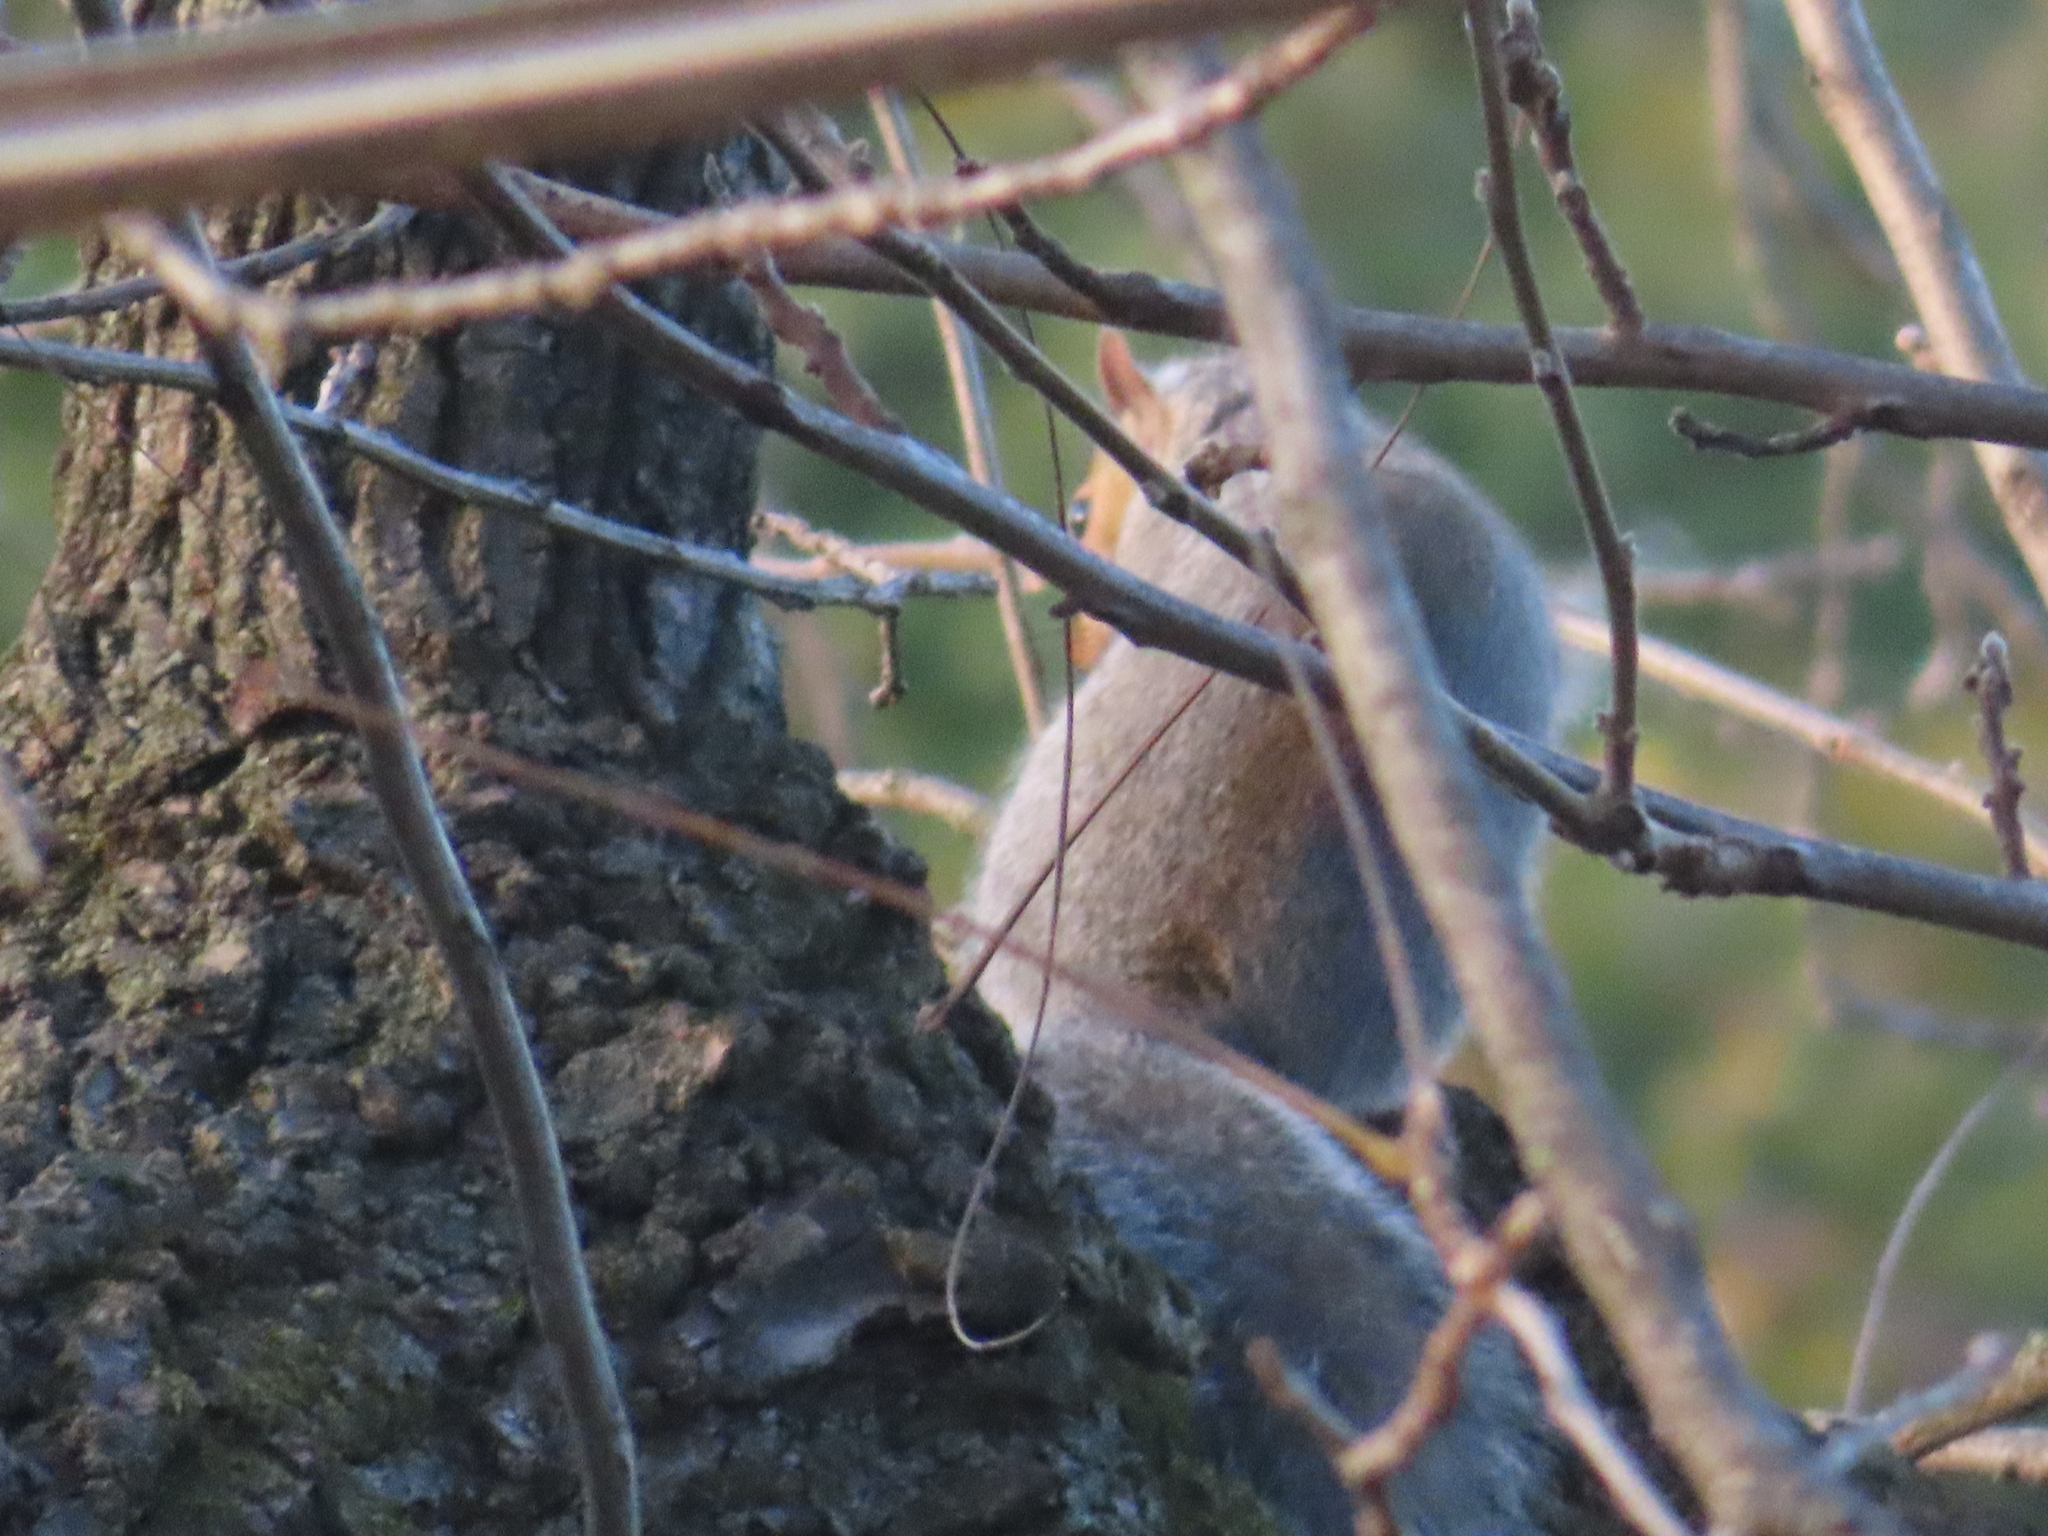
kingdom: Animalia
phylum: Chordata
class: Mammalia
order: Rodentia
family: Sciuridae
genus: Sciurus
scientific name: Sciurus carolinensis
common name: Eastern gray squirrel
